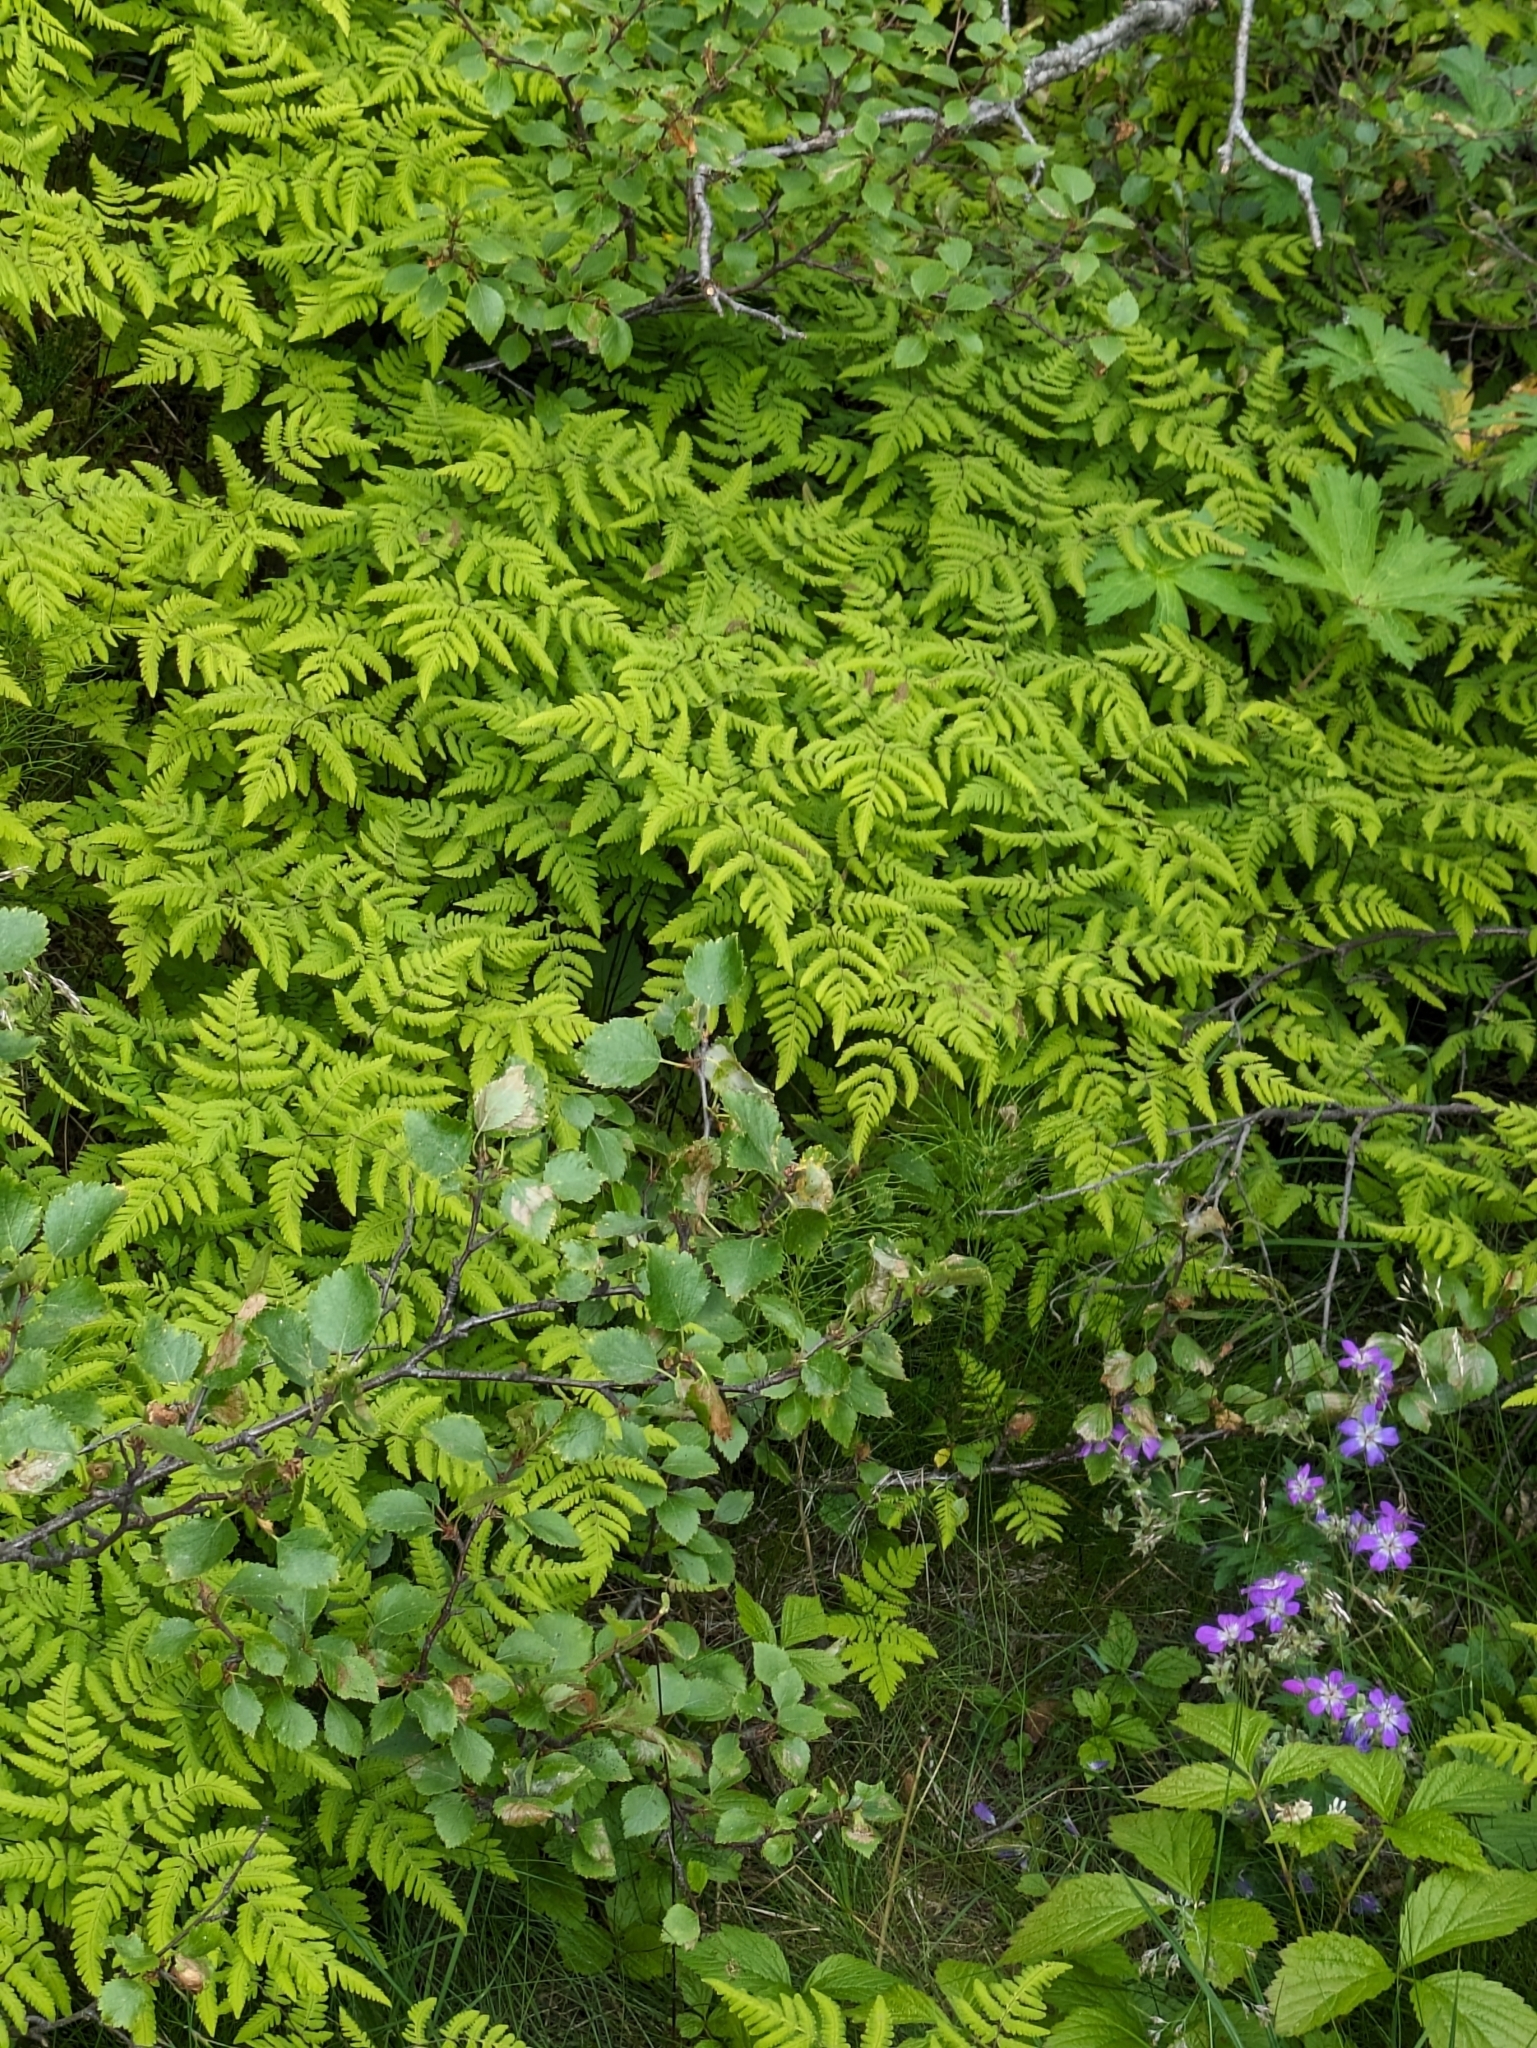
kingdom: Plantae
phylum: Tracheophyta
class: Polypodiopsida
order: Polypodiales
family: Cystopteridaceae
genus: Gymnocarpium
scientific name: Gymnocarpium dryopteris
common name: Oak fern
